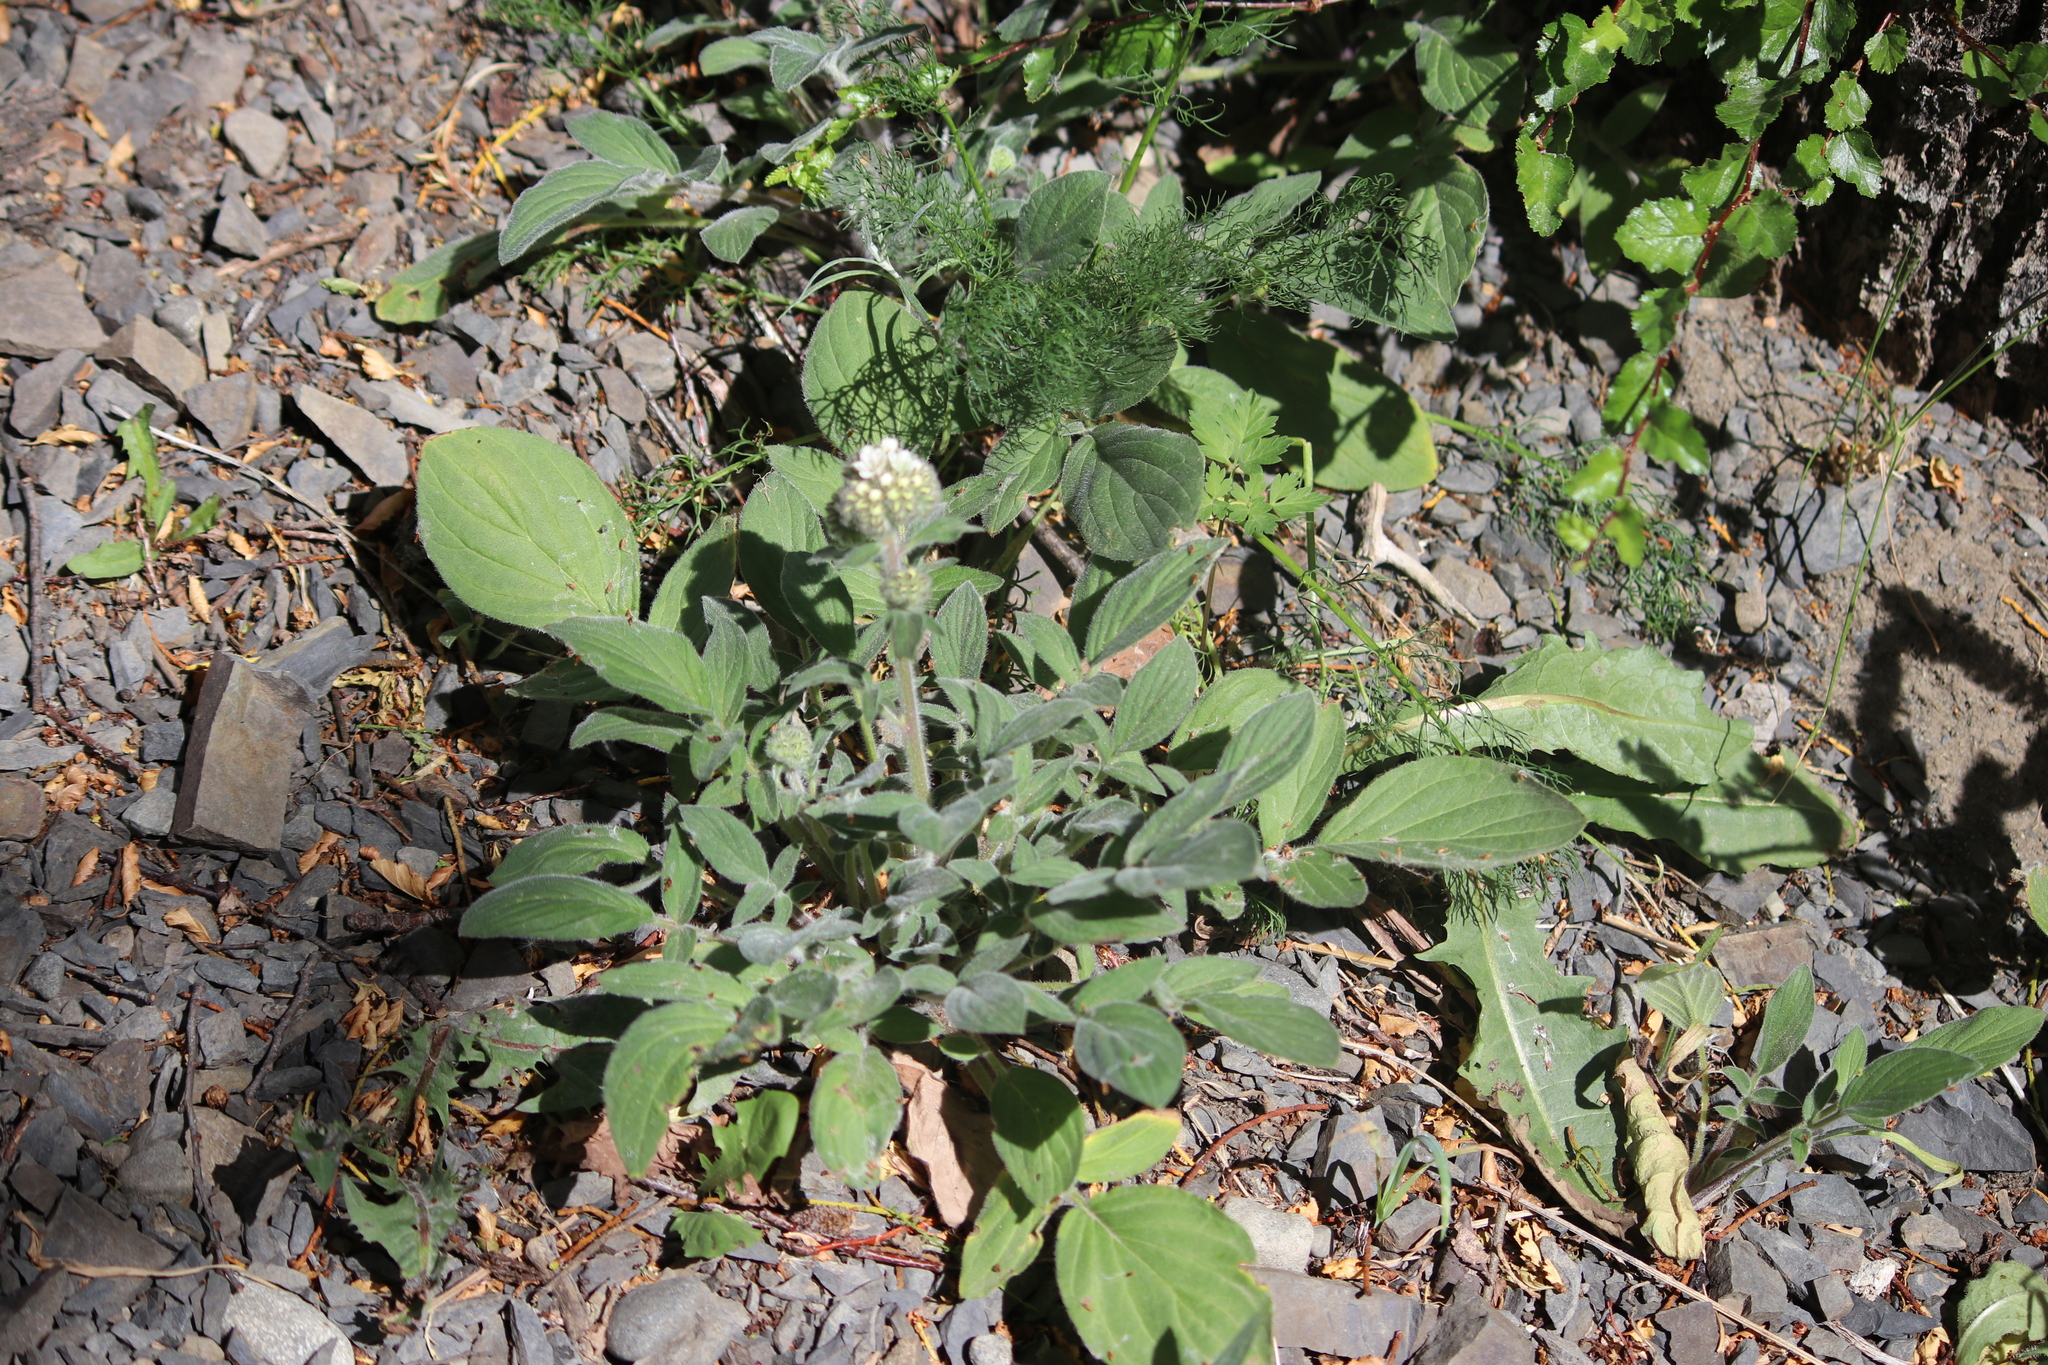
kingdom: Plantae
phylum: Tracheophyta
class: Magnoliopsida
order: Boraginales
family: Hydrophyllaceae
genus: Phacelia
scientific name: Phacelia secunda
